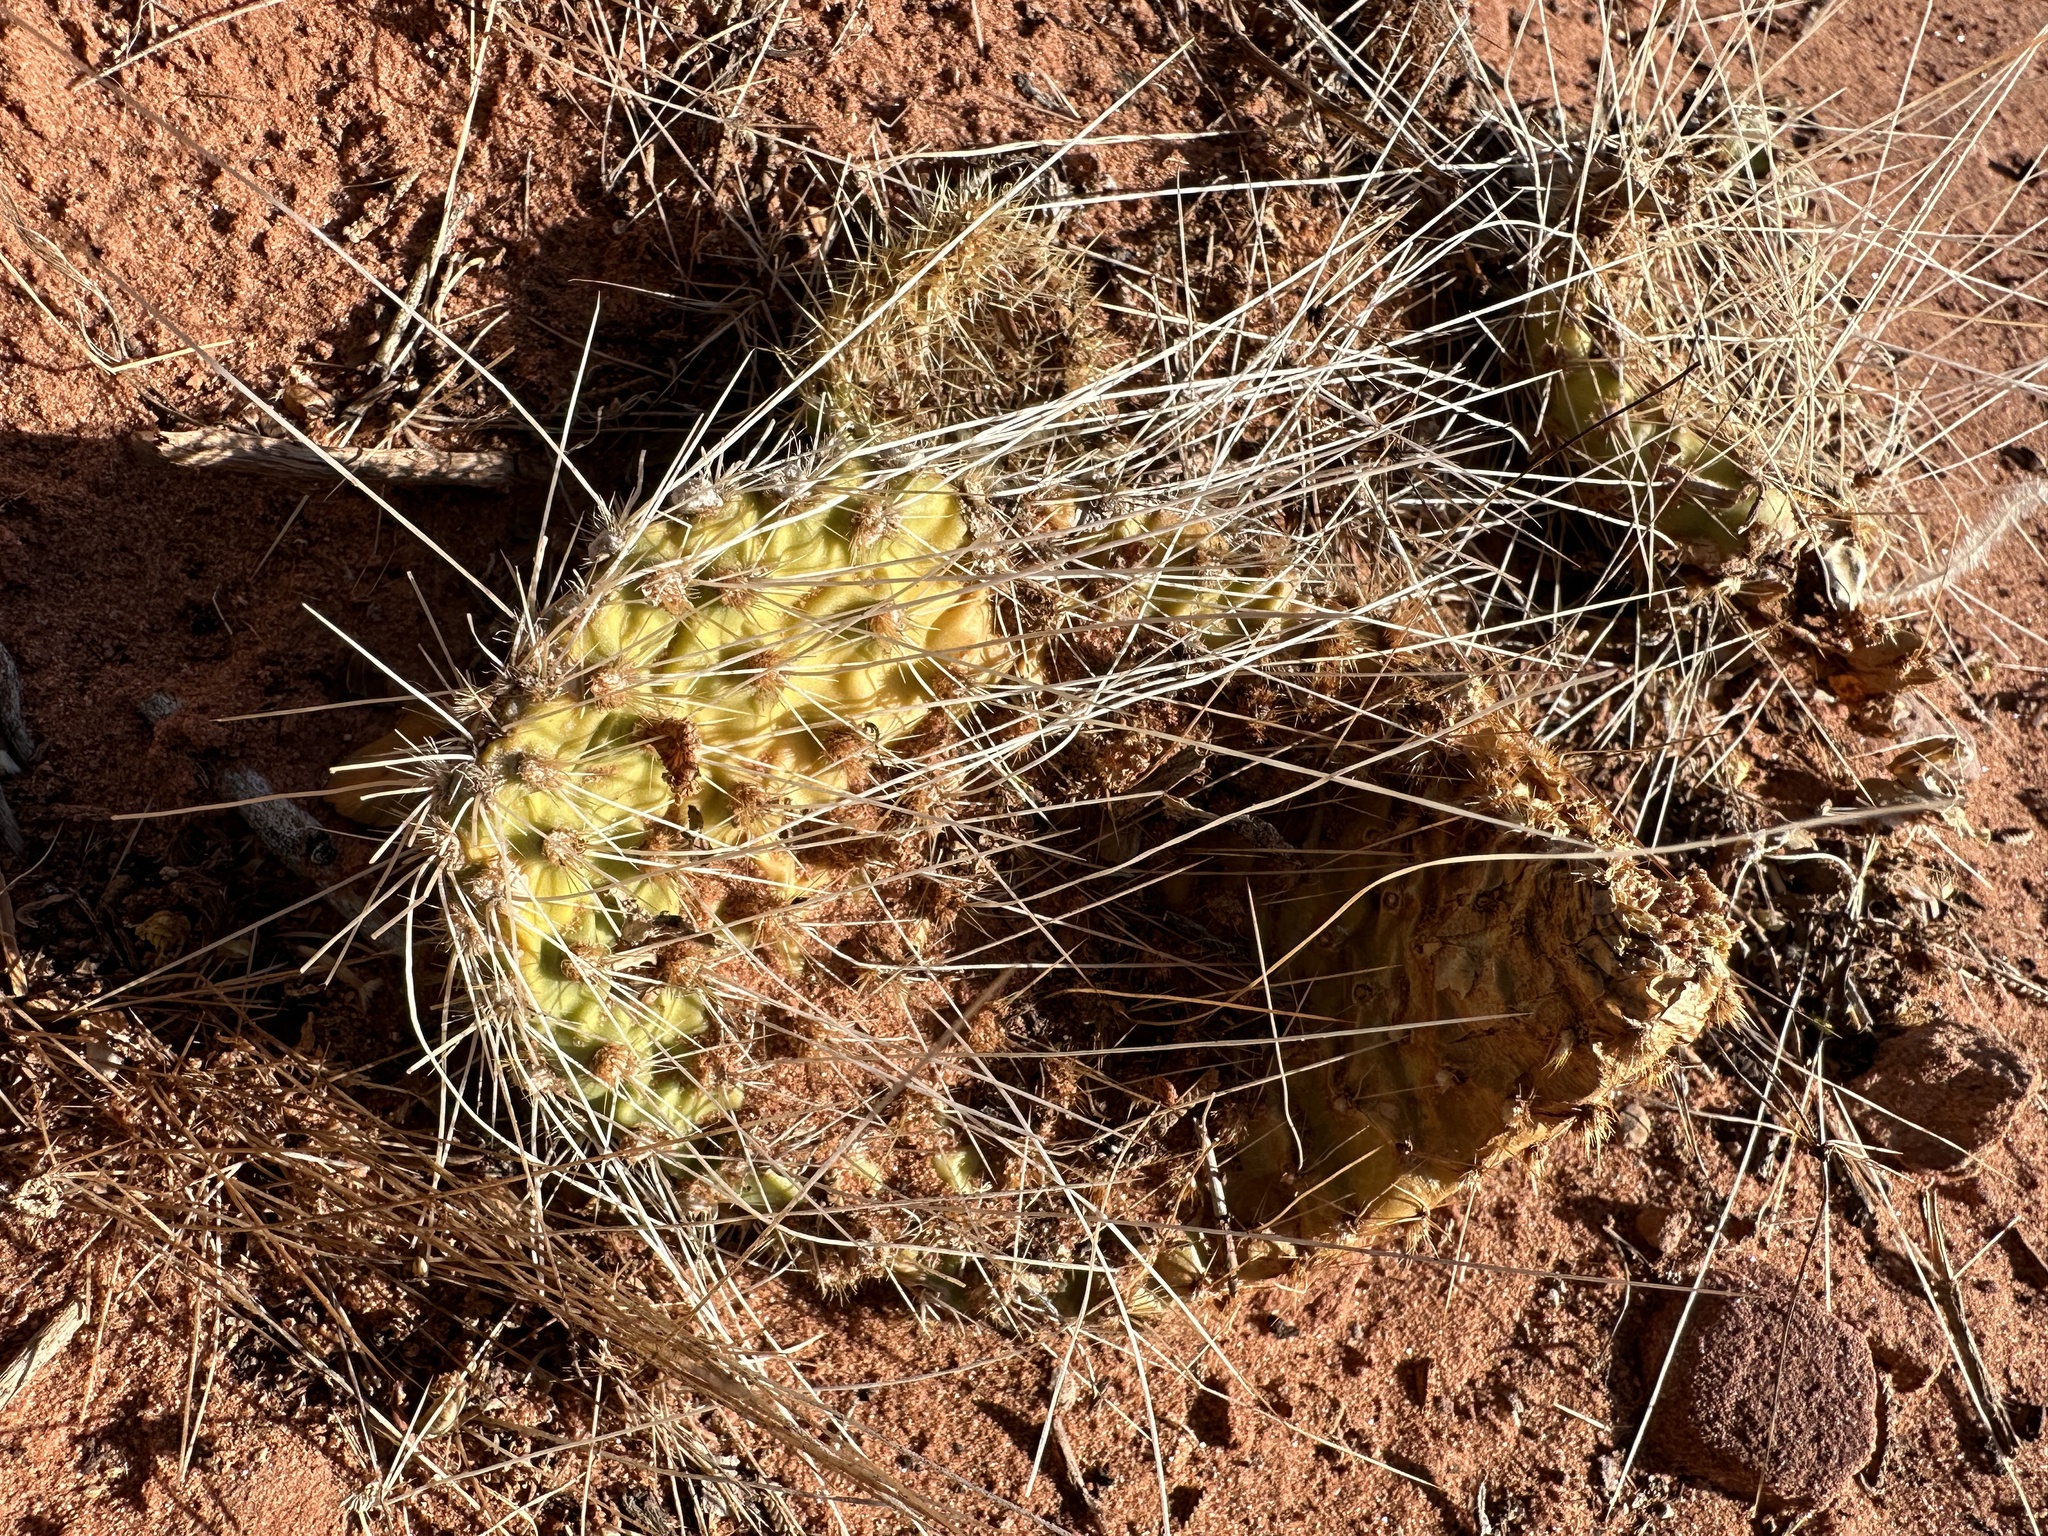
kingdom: Plantae
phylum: Tracheophyta
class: Magnoliopsida
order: Caryophyllales
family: Cactaceae
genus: Opuntia
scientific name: Opuntia polyacantha
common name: Plains prickly-pear
